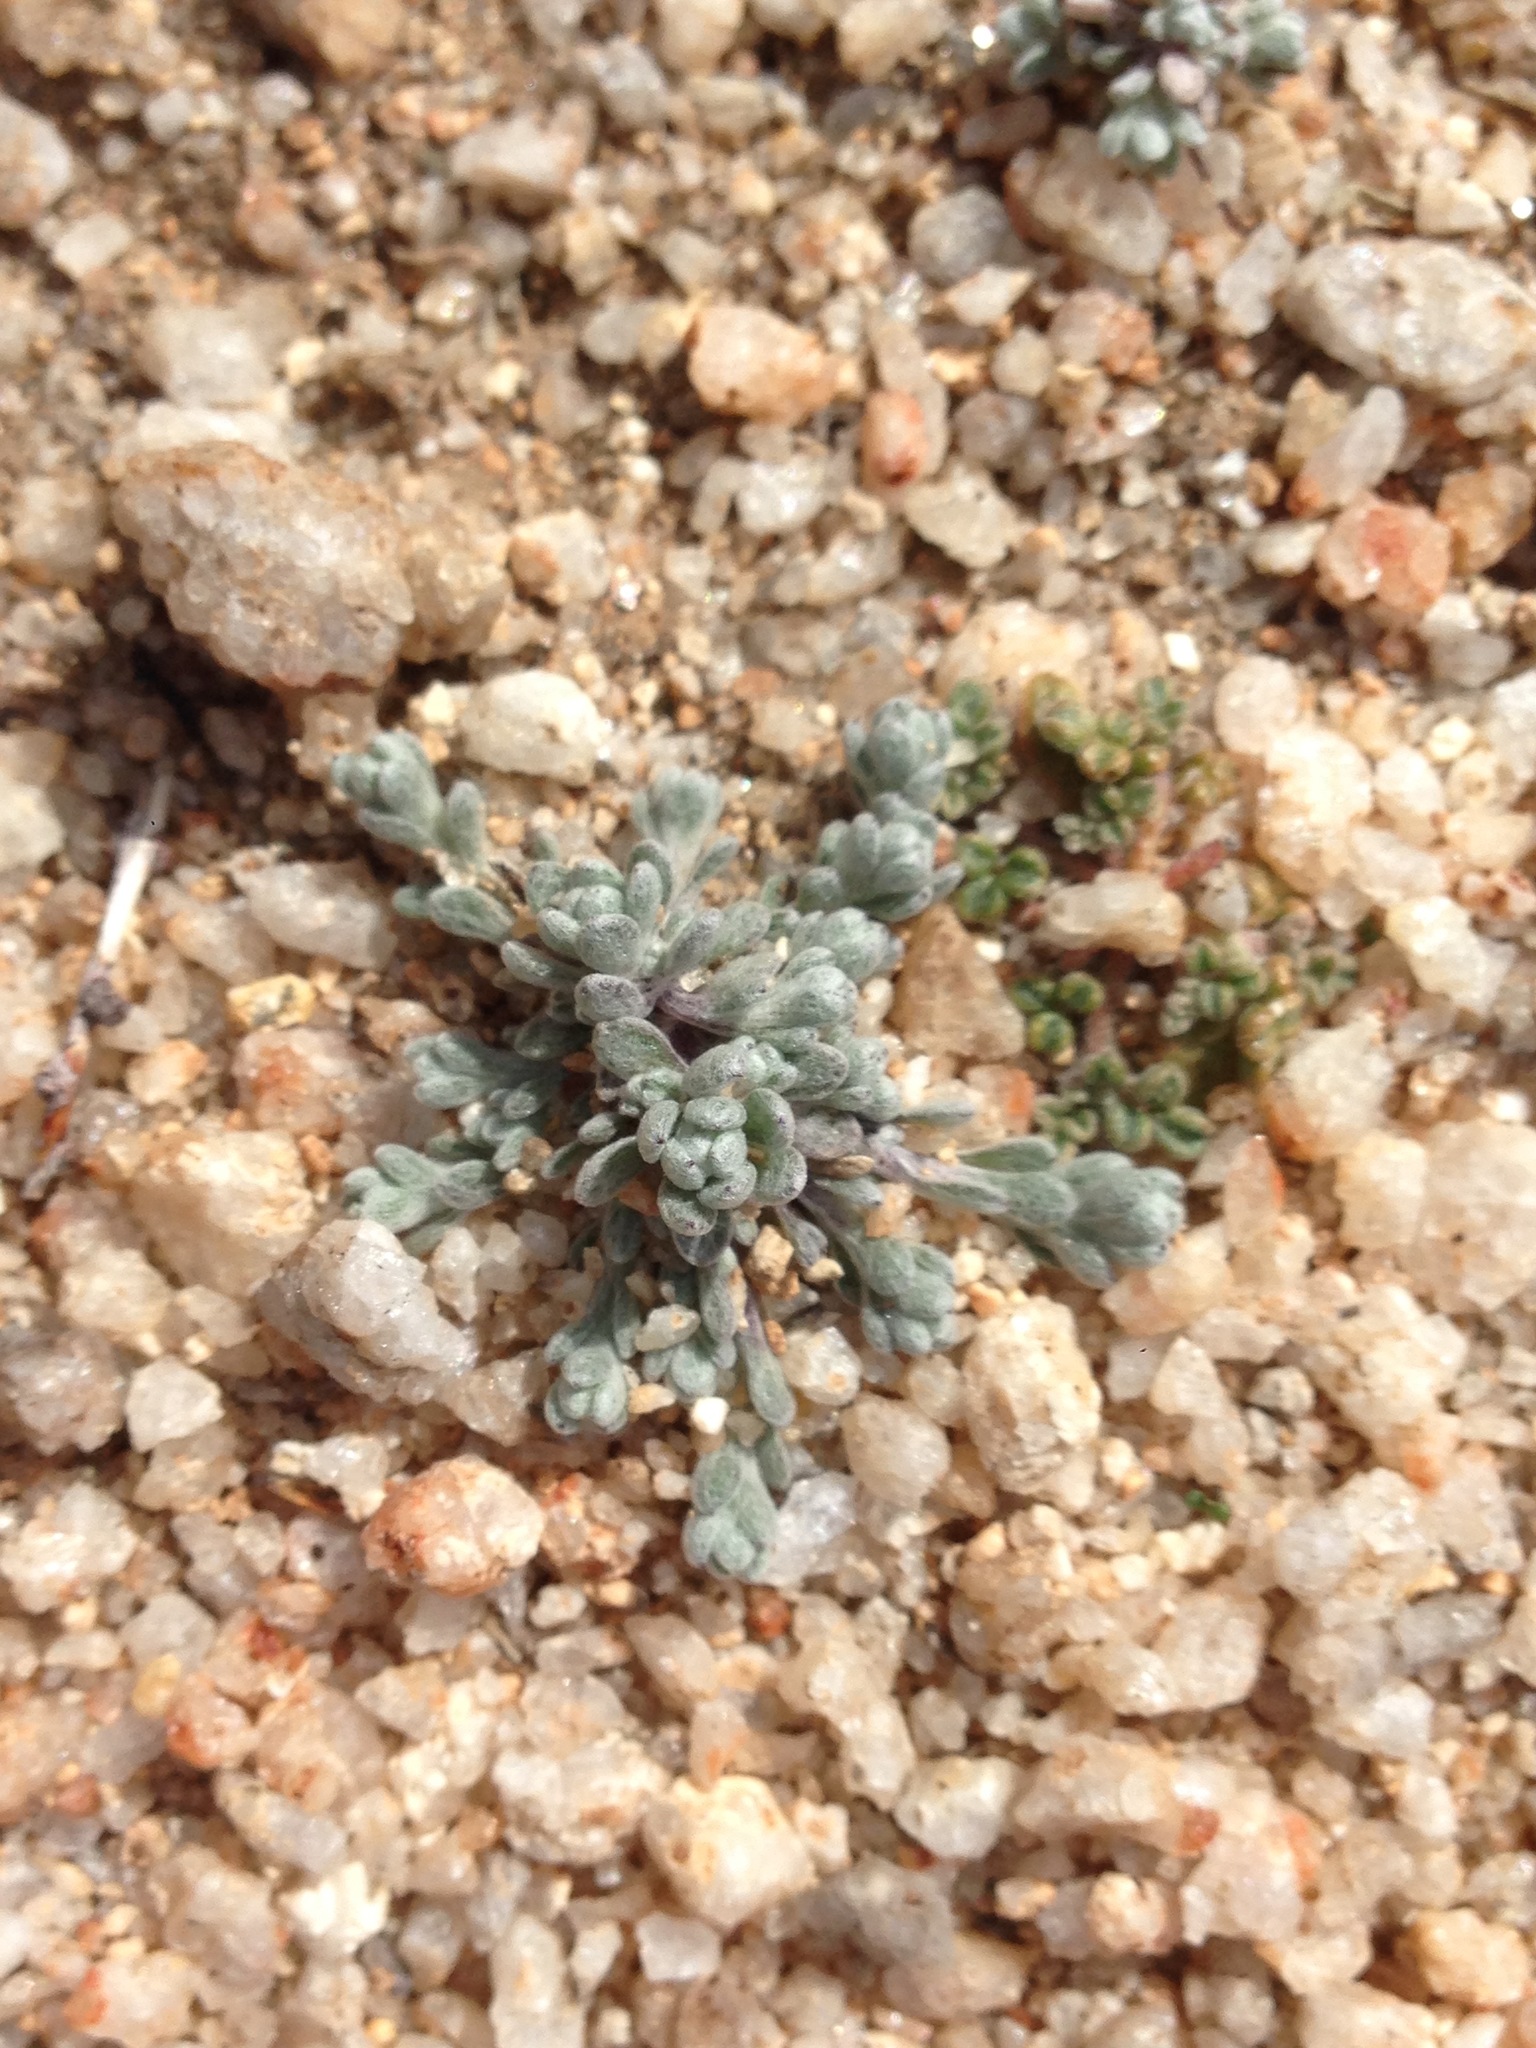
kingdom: Plantae
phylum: Tracheophyta
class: Magnoliopsida
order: Asterales
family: Asteraceae
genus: Logfia
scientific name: Logfia depressa
